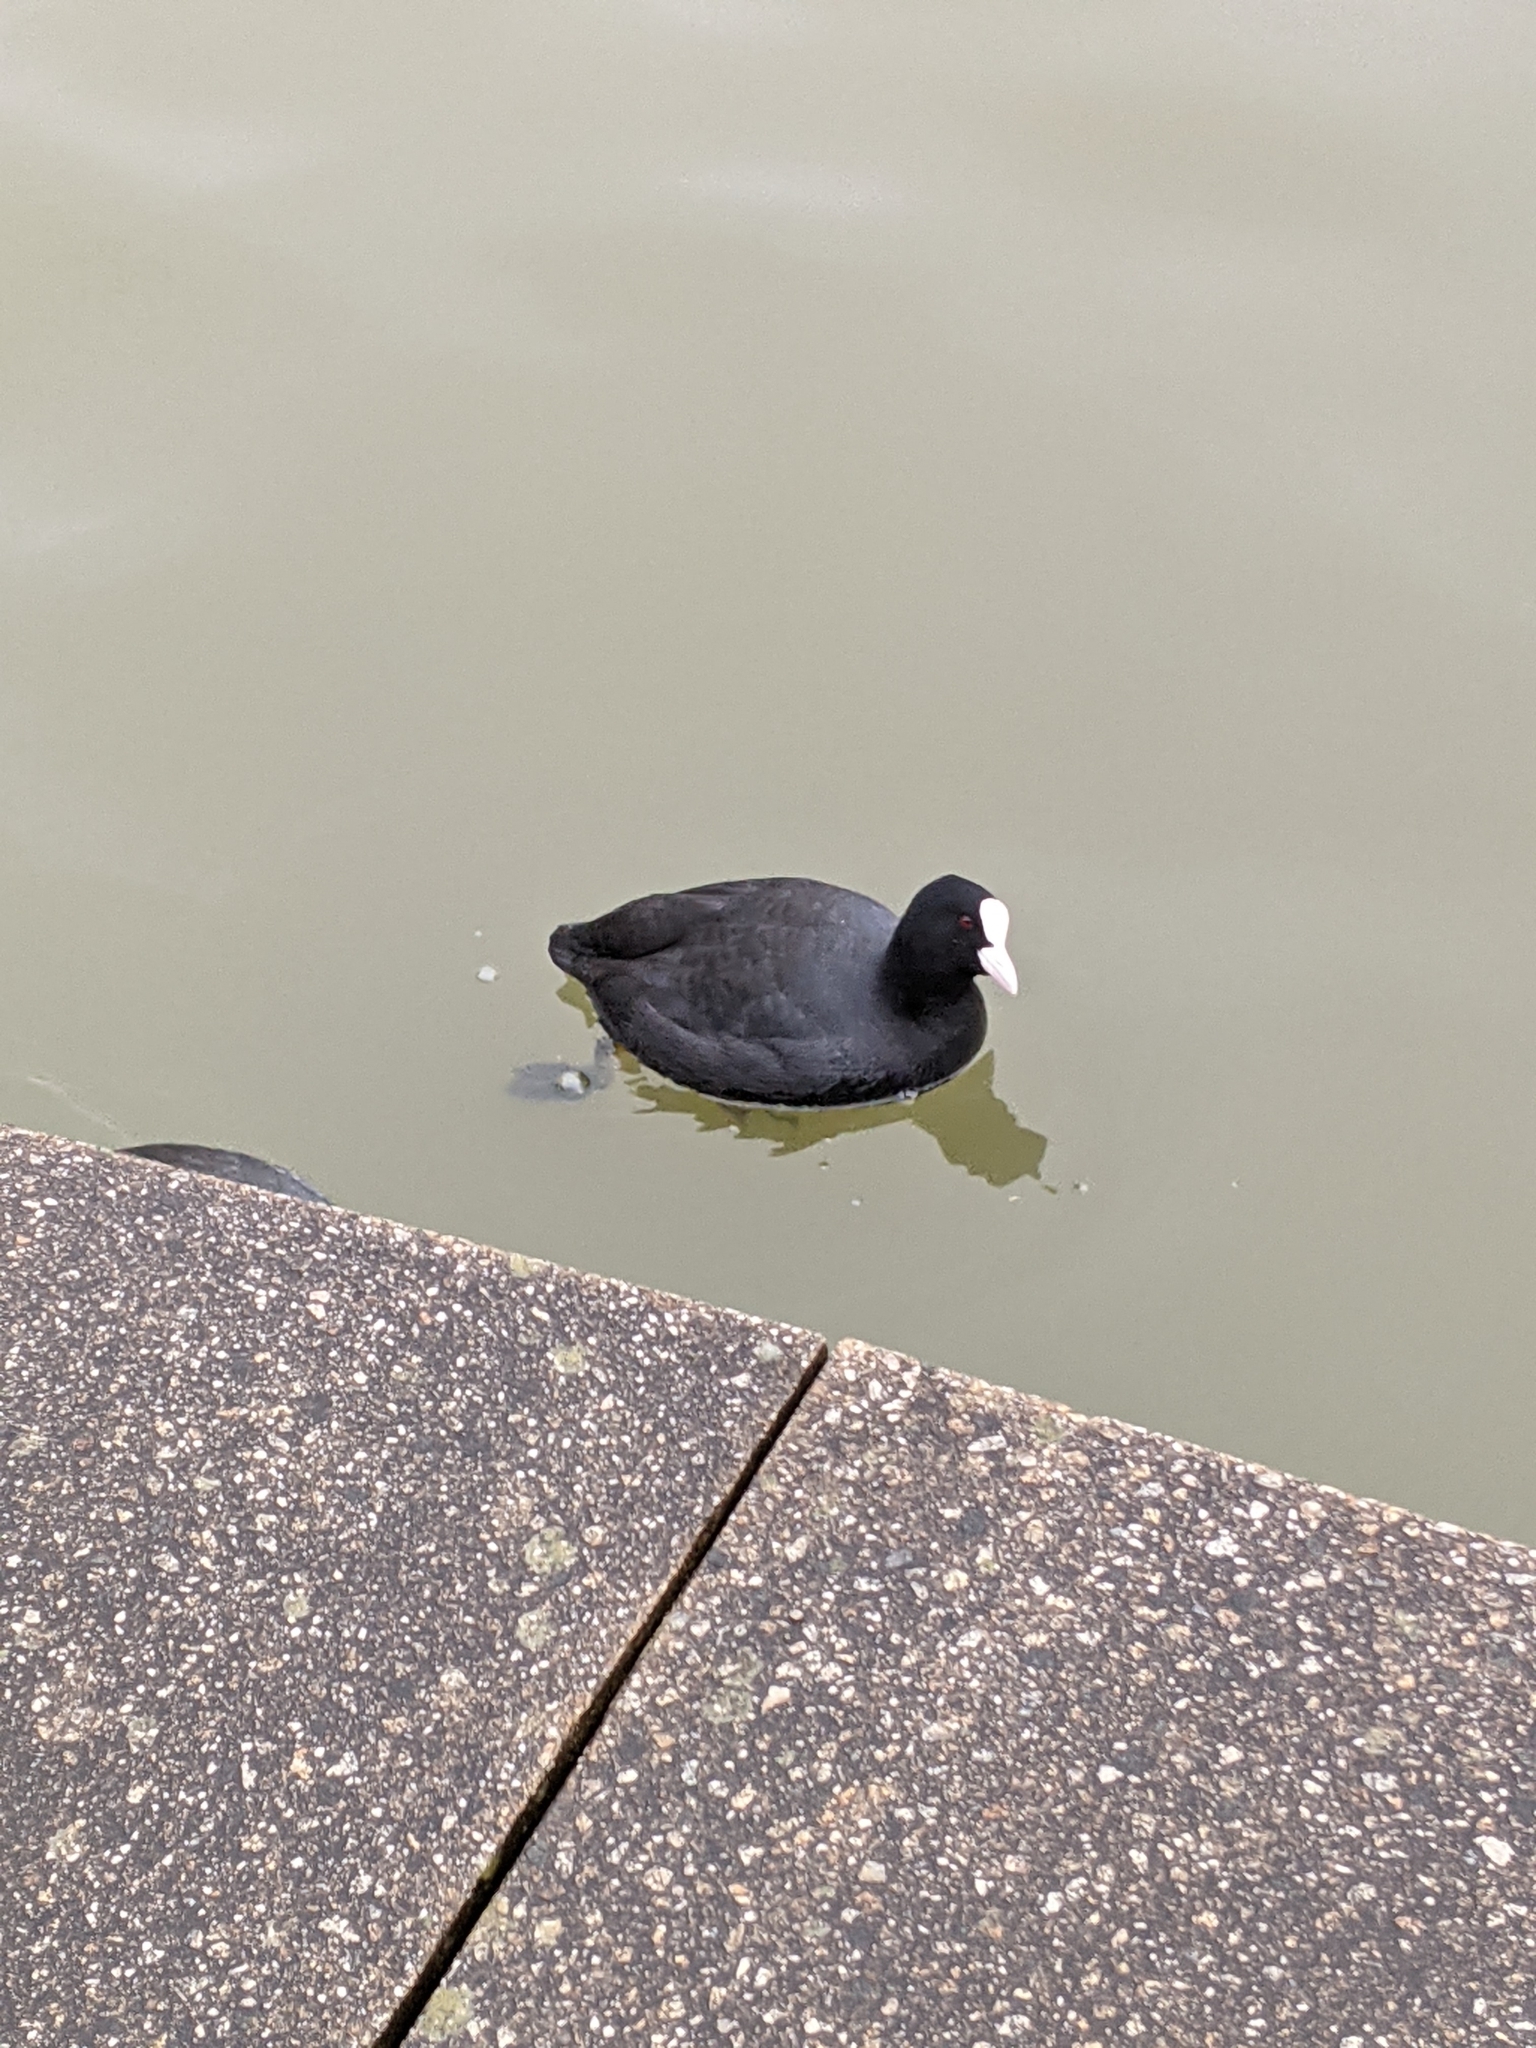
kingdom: Animalia
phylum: Chordata
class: Aves
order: Gruiformes
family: Rallidae
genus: Fulica
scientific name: Fulica atra
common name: Eurasian coot
